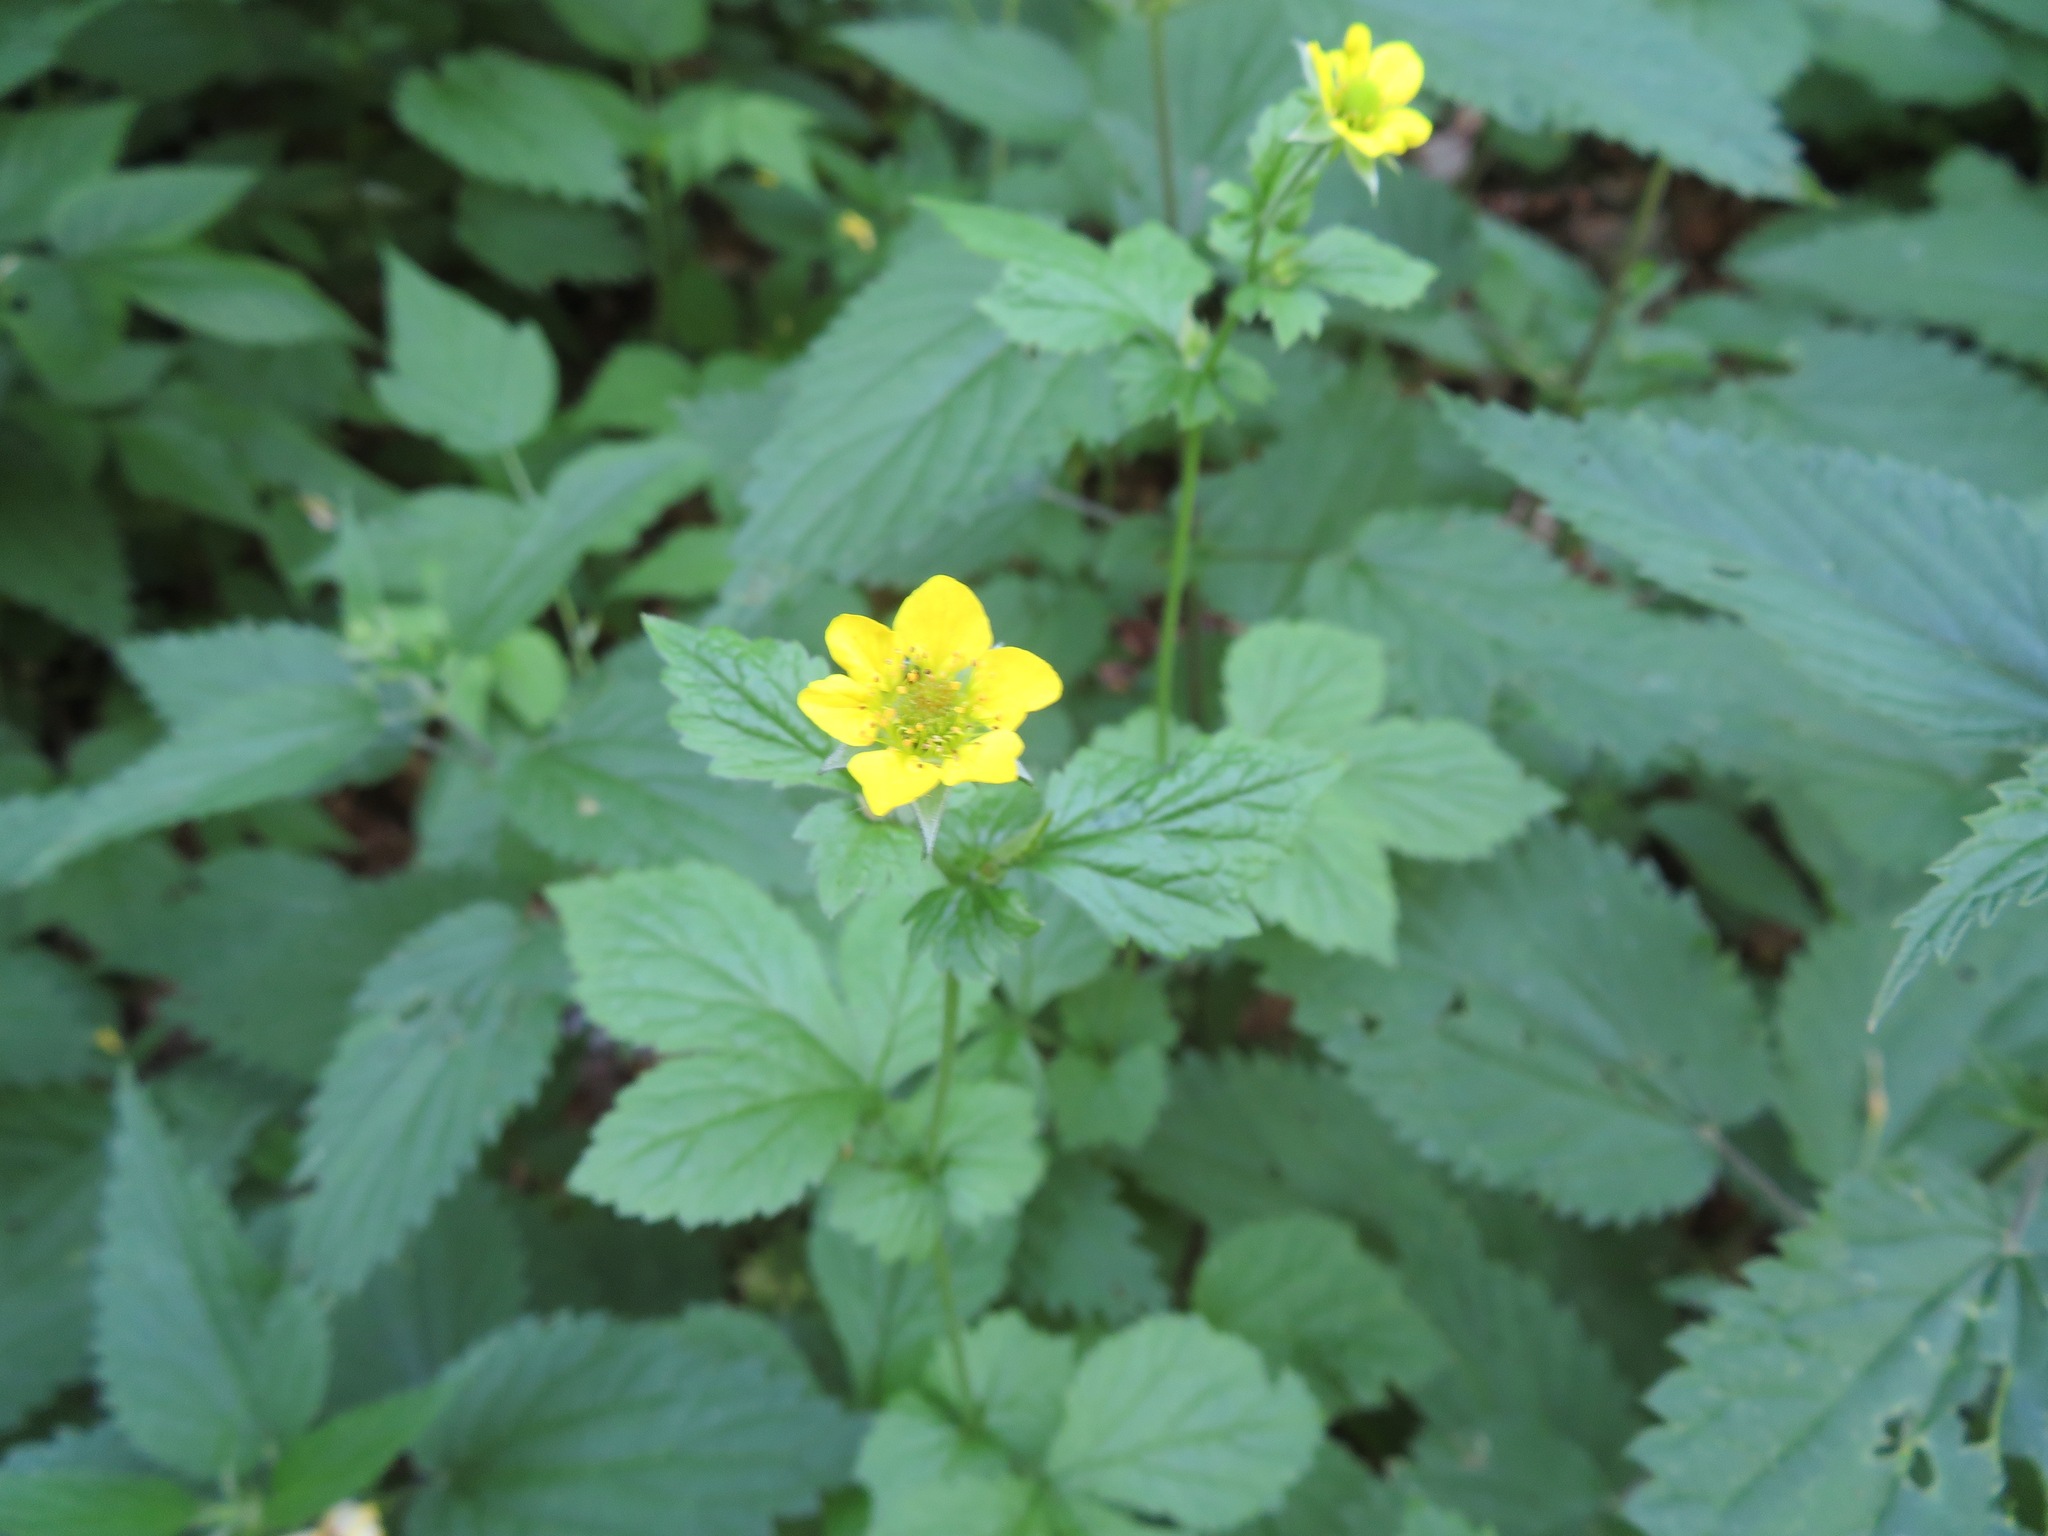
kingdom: Plantae
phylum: Tracheophyta
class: Magnoliopsida
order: Rosales
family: Rosaceae
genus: Geum
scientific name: Geum urbanum
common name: Wood avens
